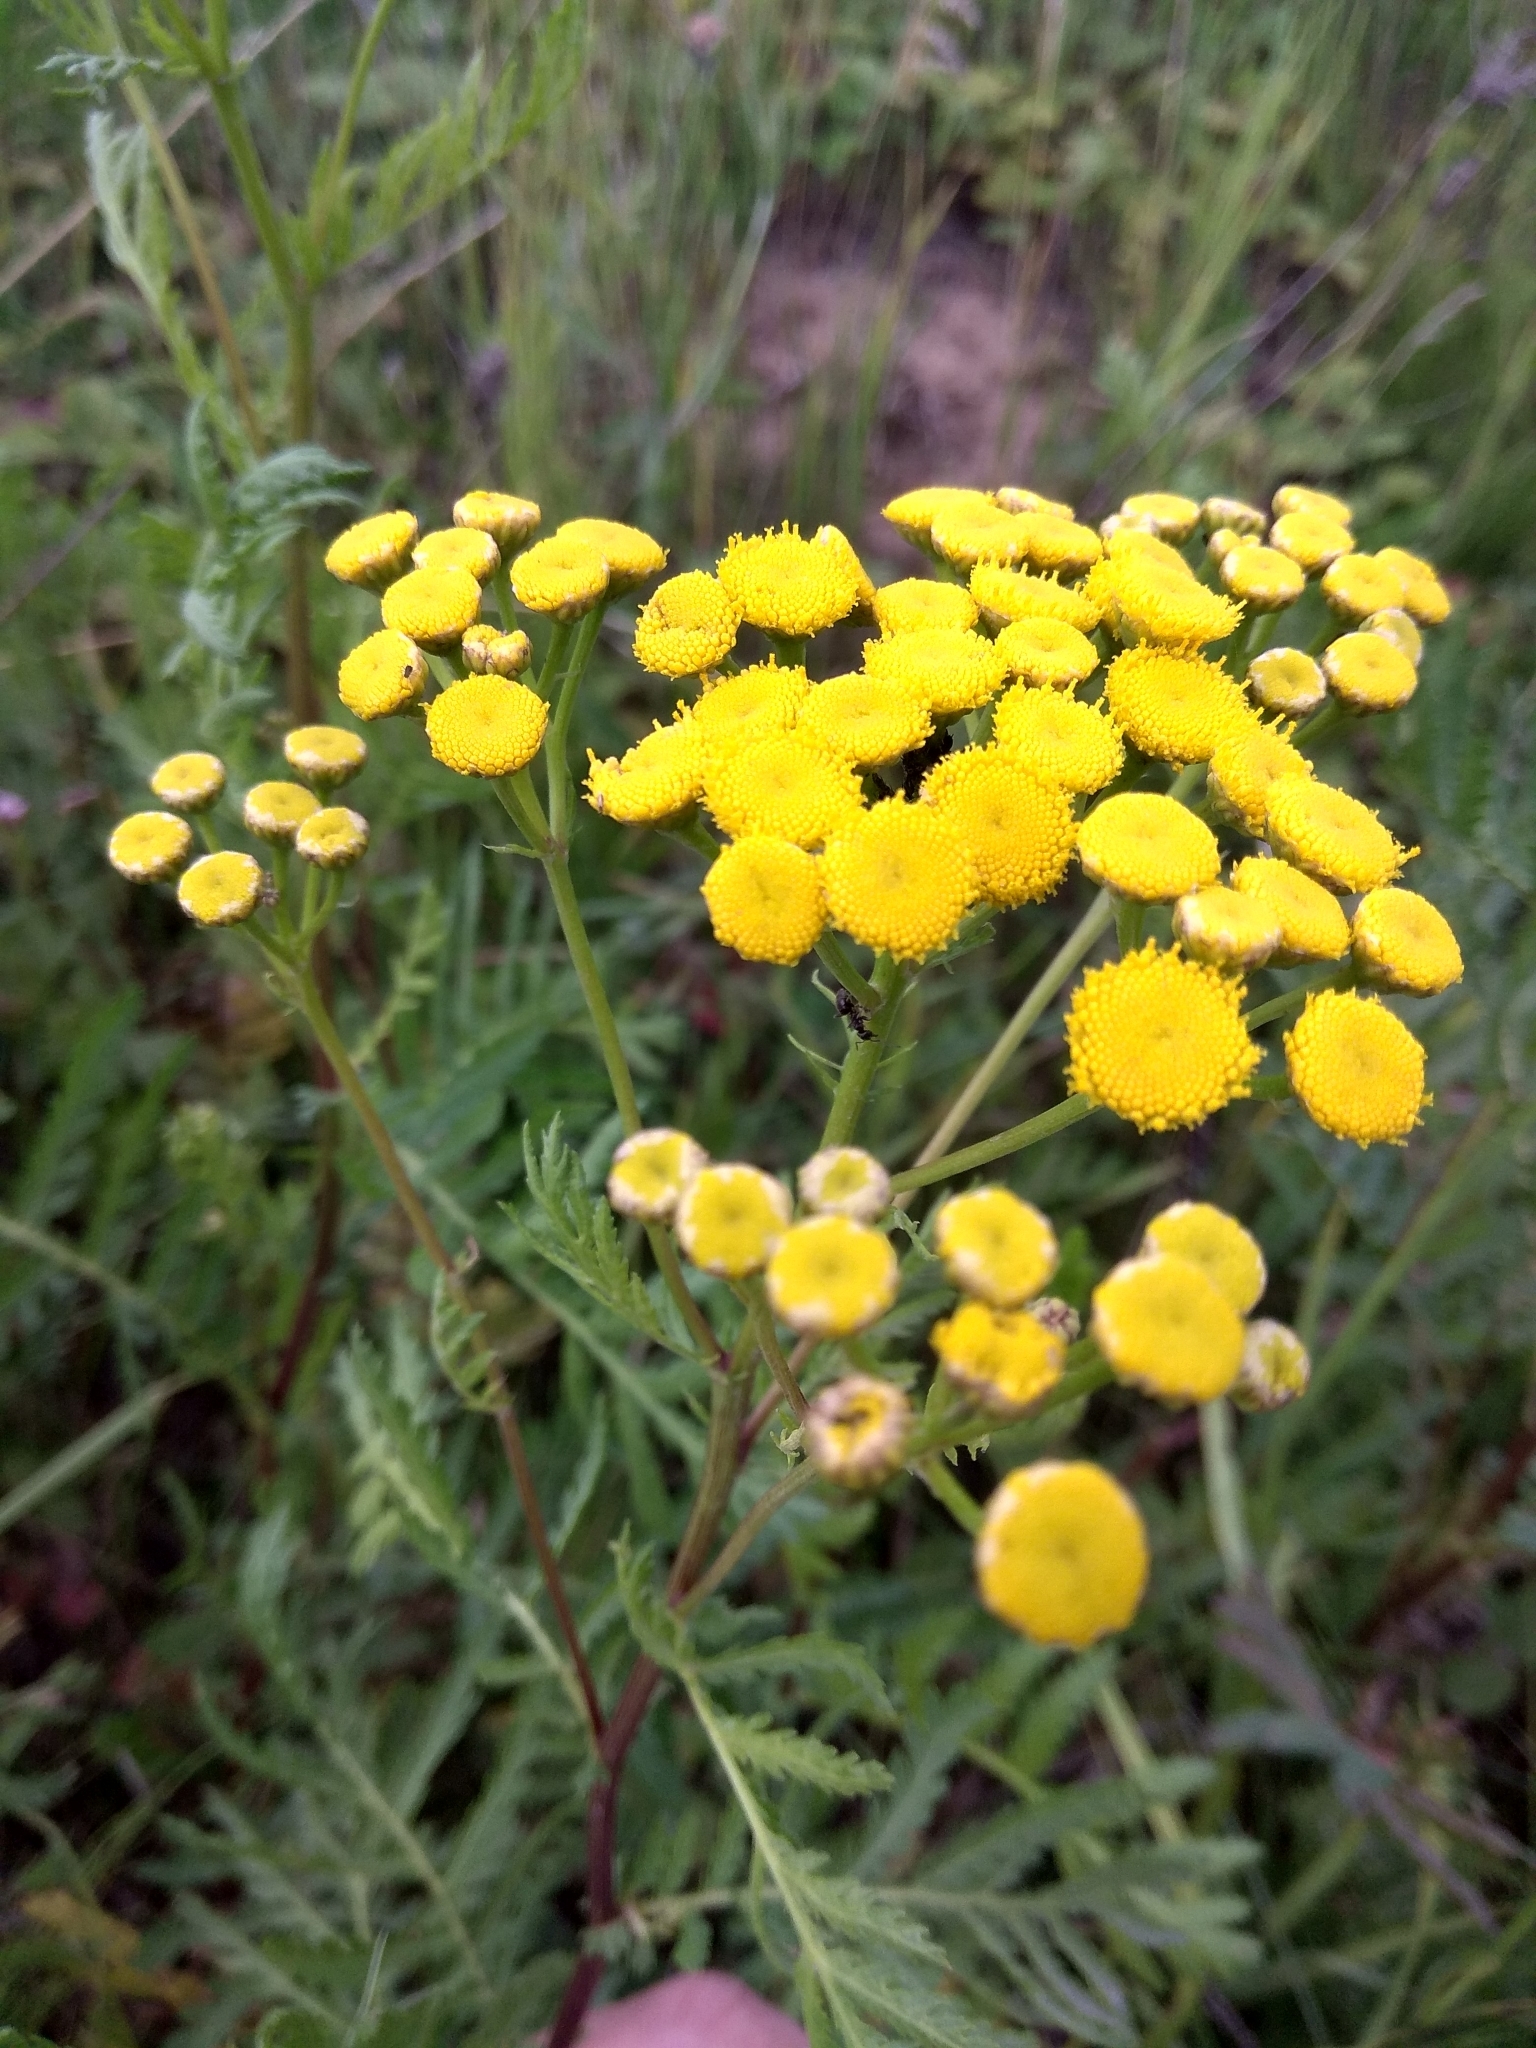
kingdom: Plantae
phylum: Tracheophyta
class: Magnoliopsida
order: Asterales
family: Asteraceae
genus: Tanacetum
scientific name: Tanacetum vulgare
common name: Common tansy
